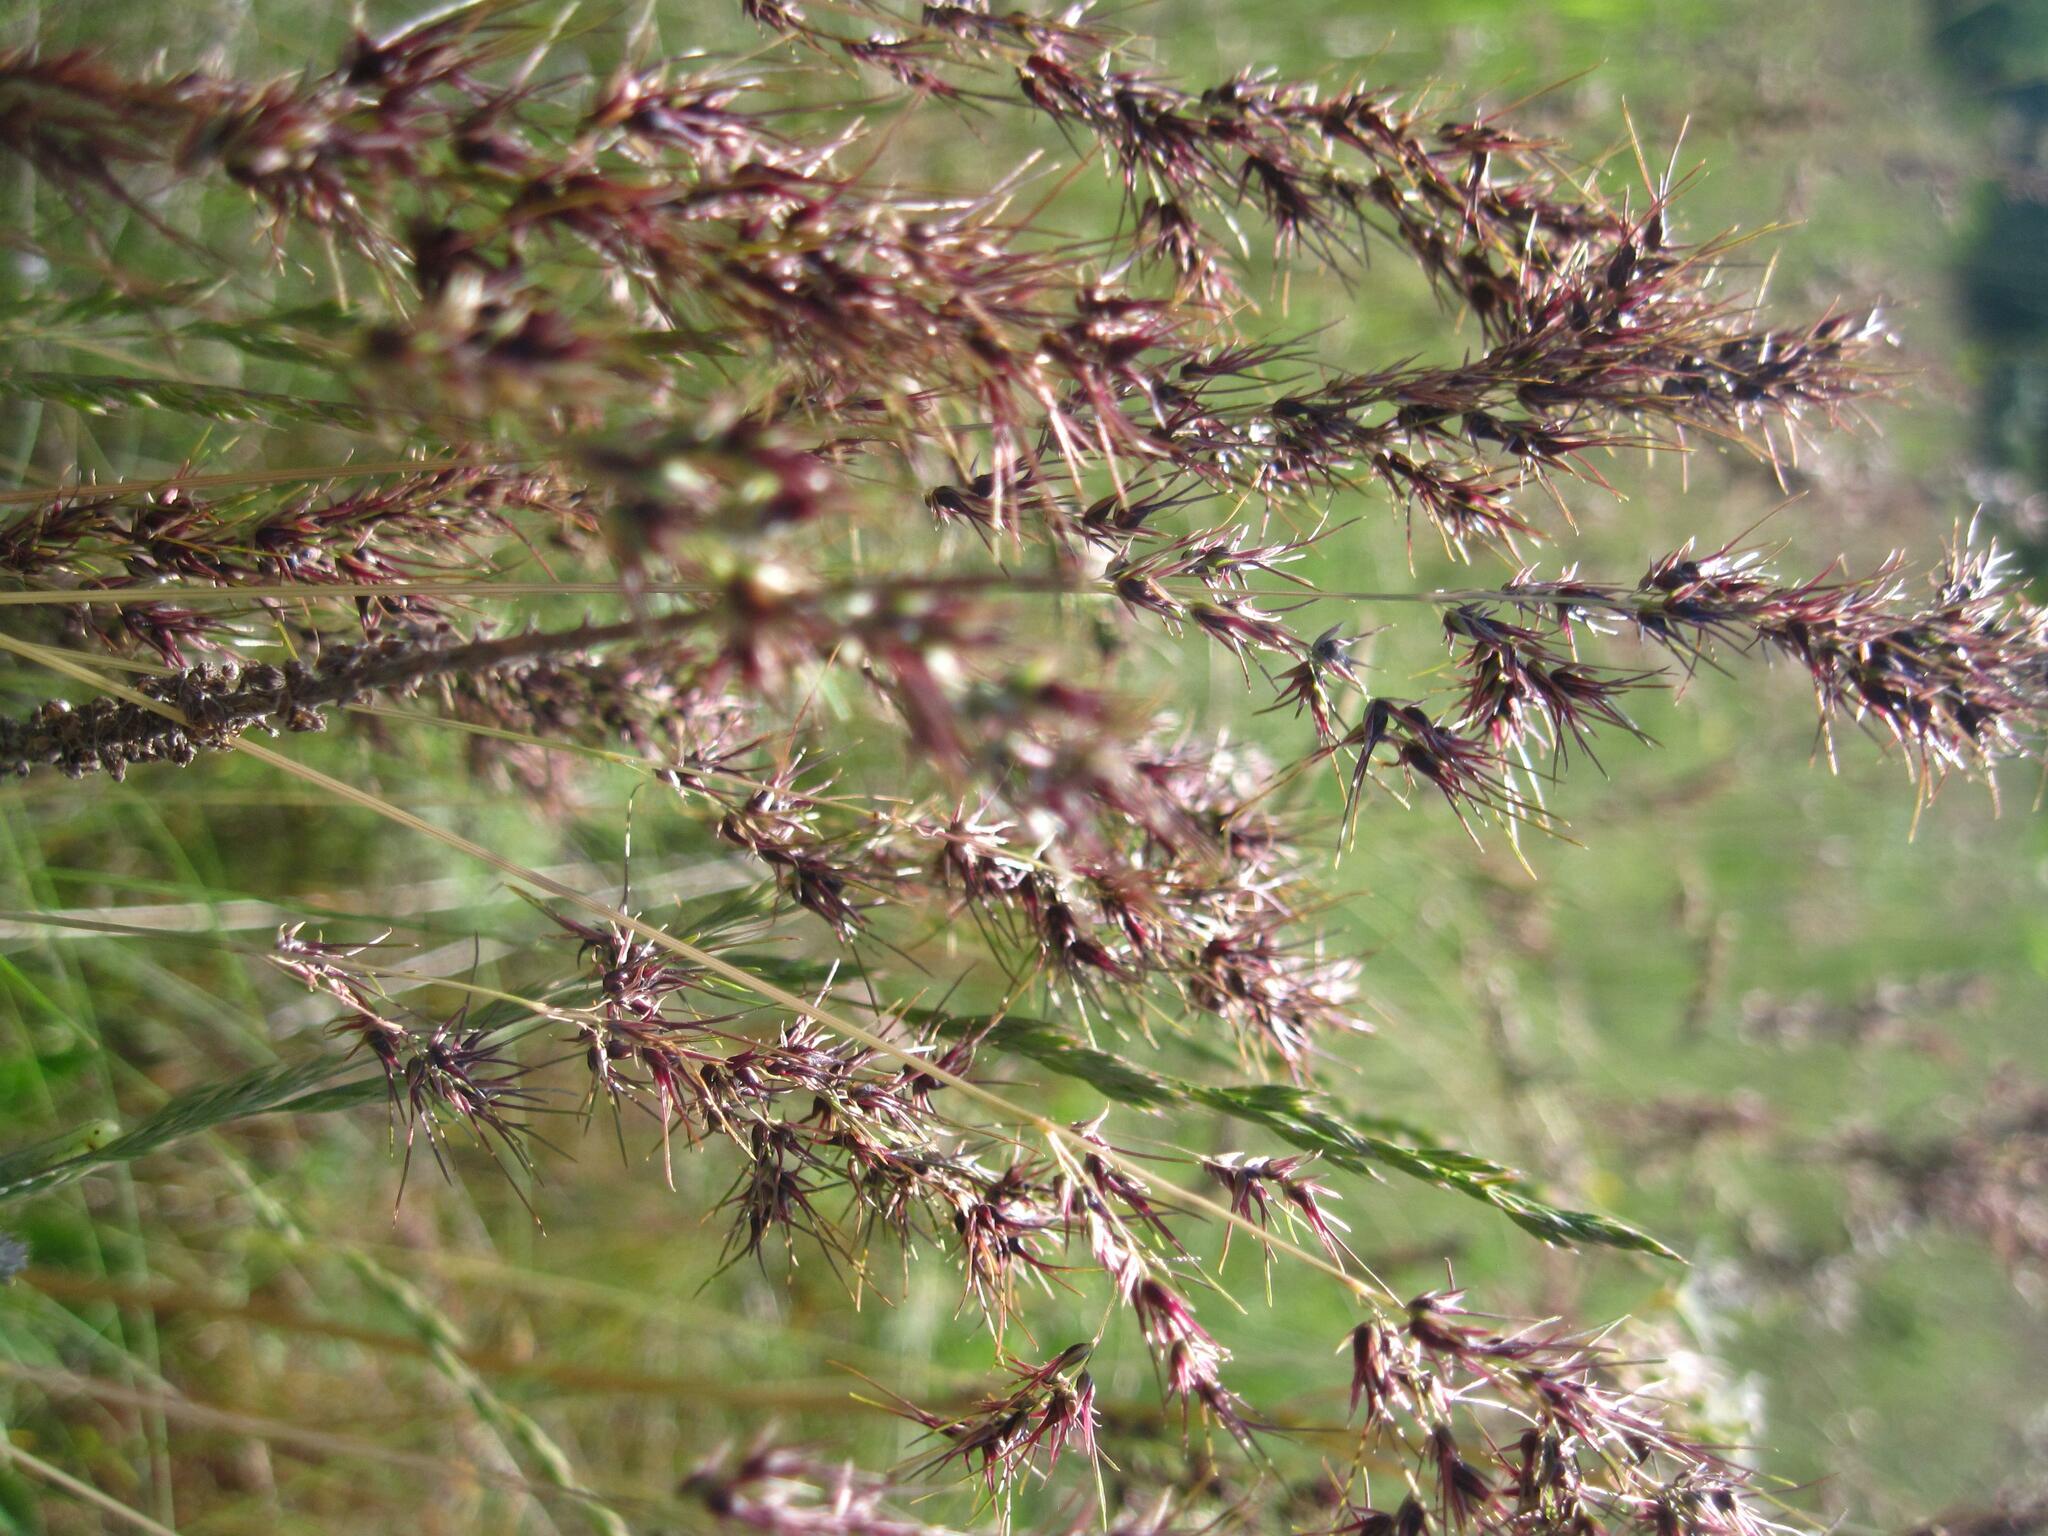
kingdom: Plantae
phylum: Tracheophyta
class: Liliopsida
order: Poales
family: Poaceae
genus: Poa
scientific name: Poa bulbosa
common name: Bulbous bluegrass
